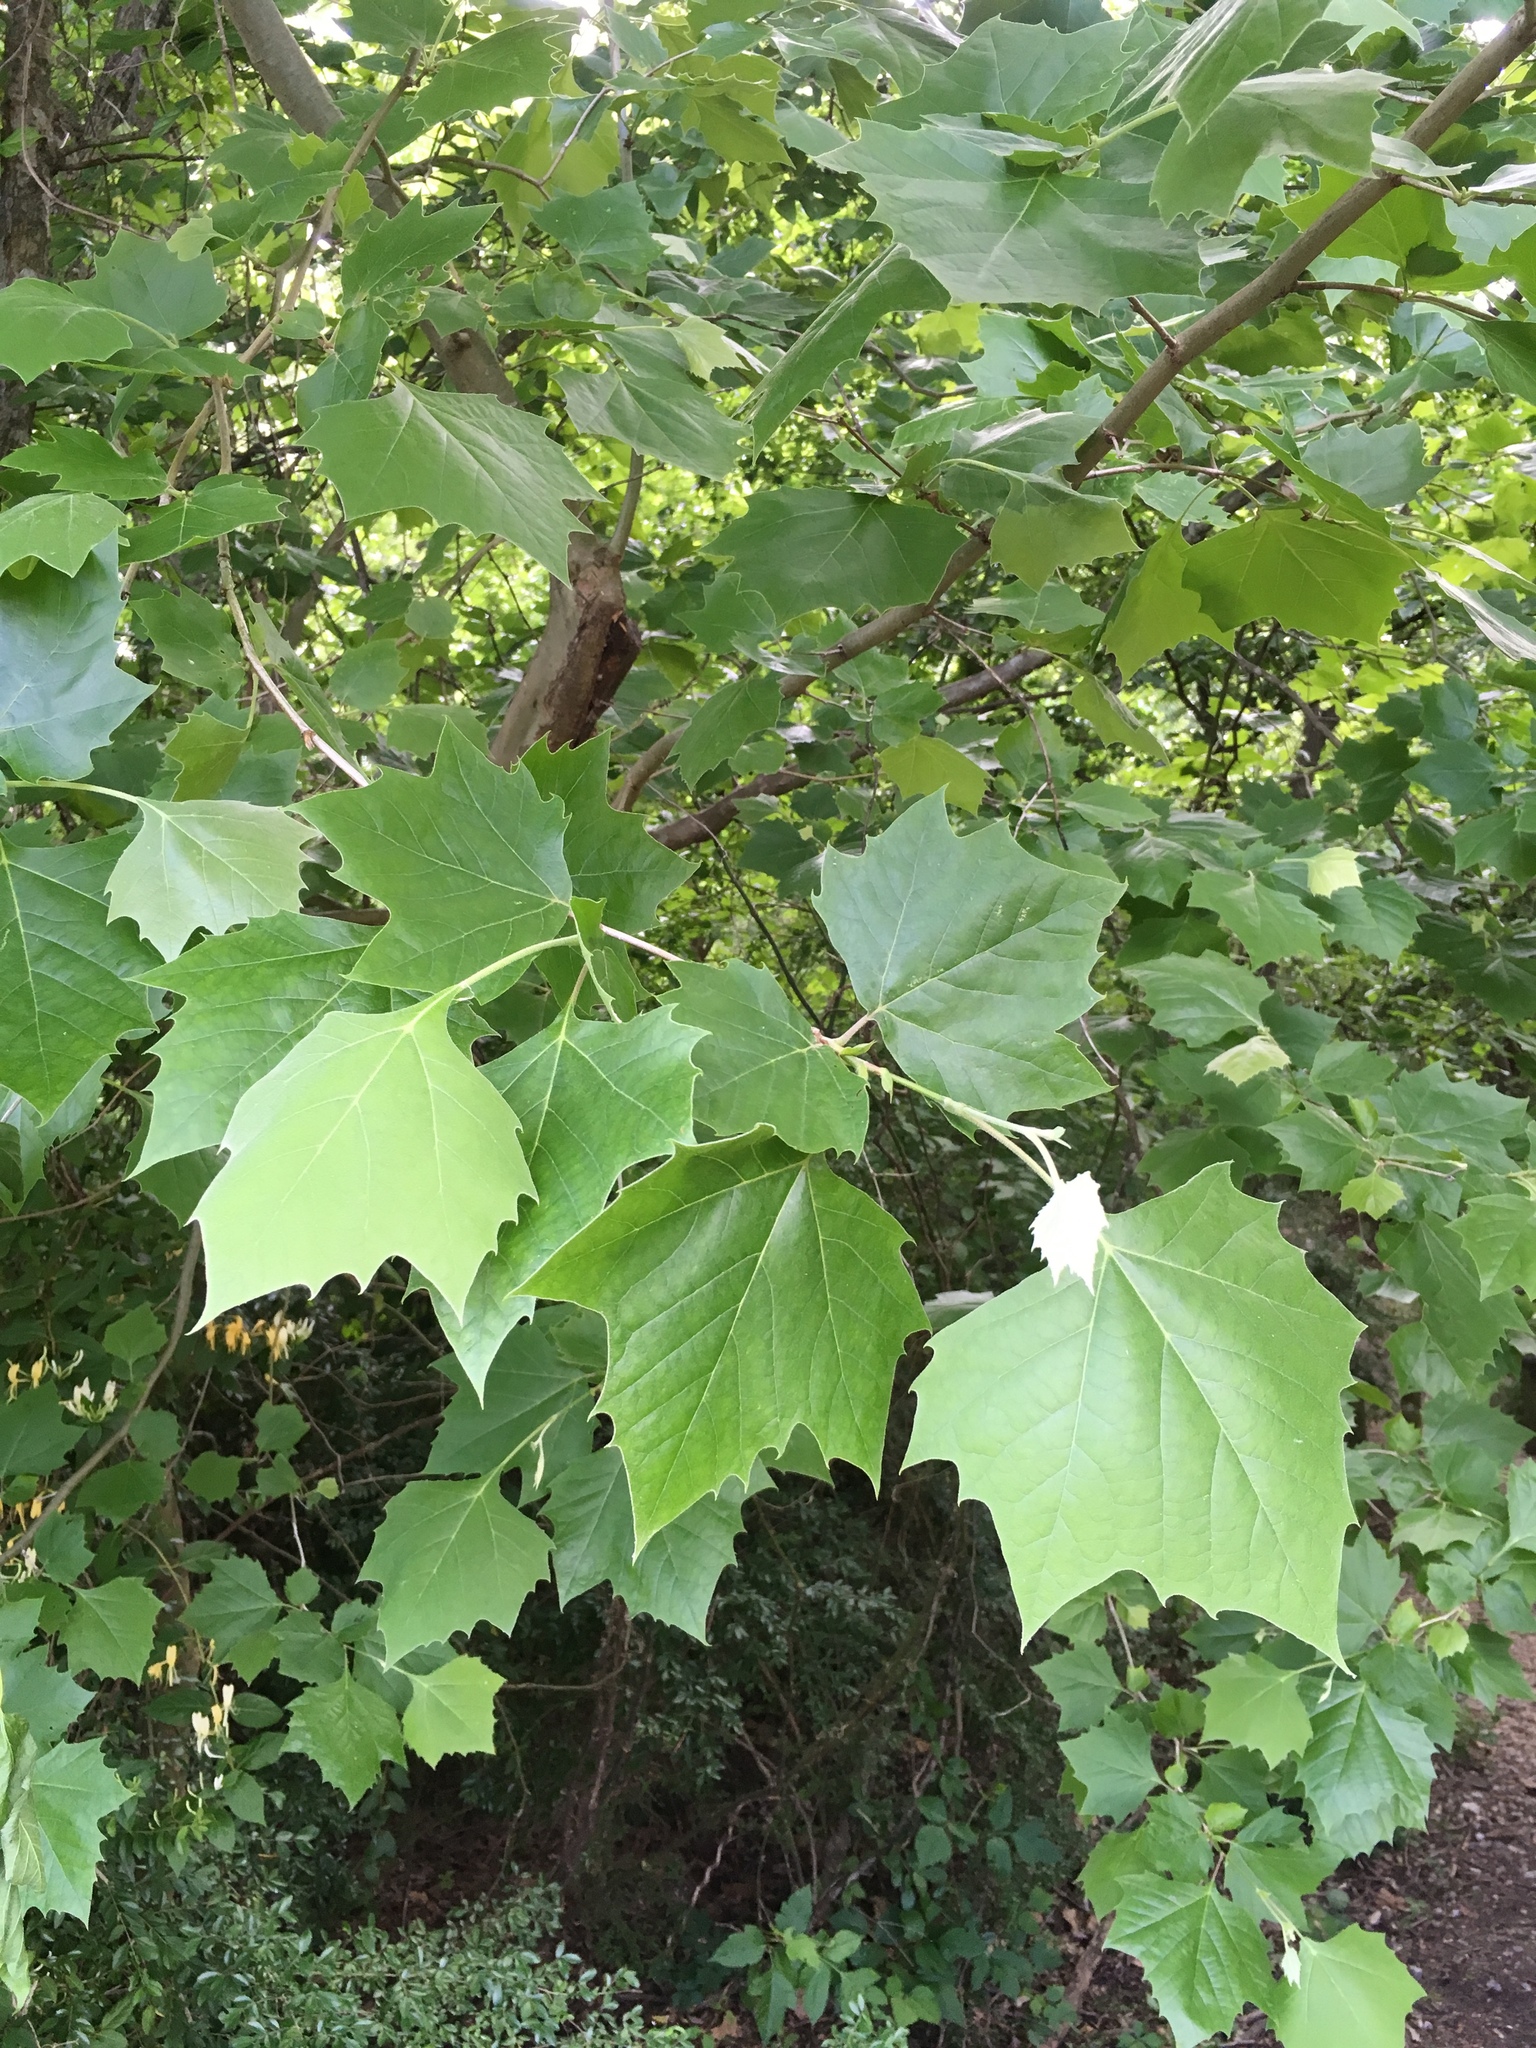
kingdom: Plantae
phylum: Tracheophyta
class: Magnoliopsida
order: Proteales
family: Platanaceae
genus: Platanus
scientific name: Platanus occidentalis
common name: American sycamore
